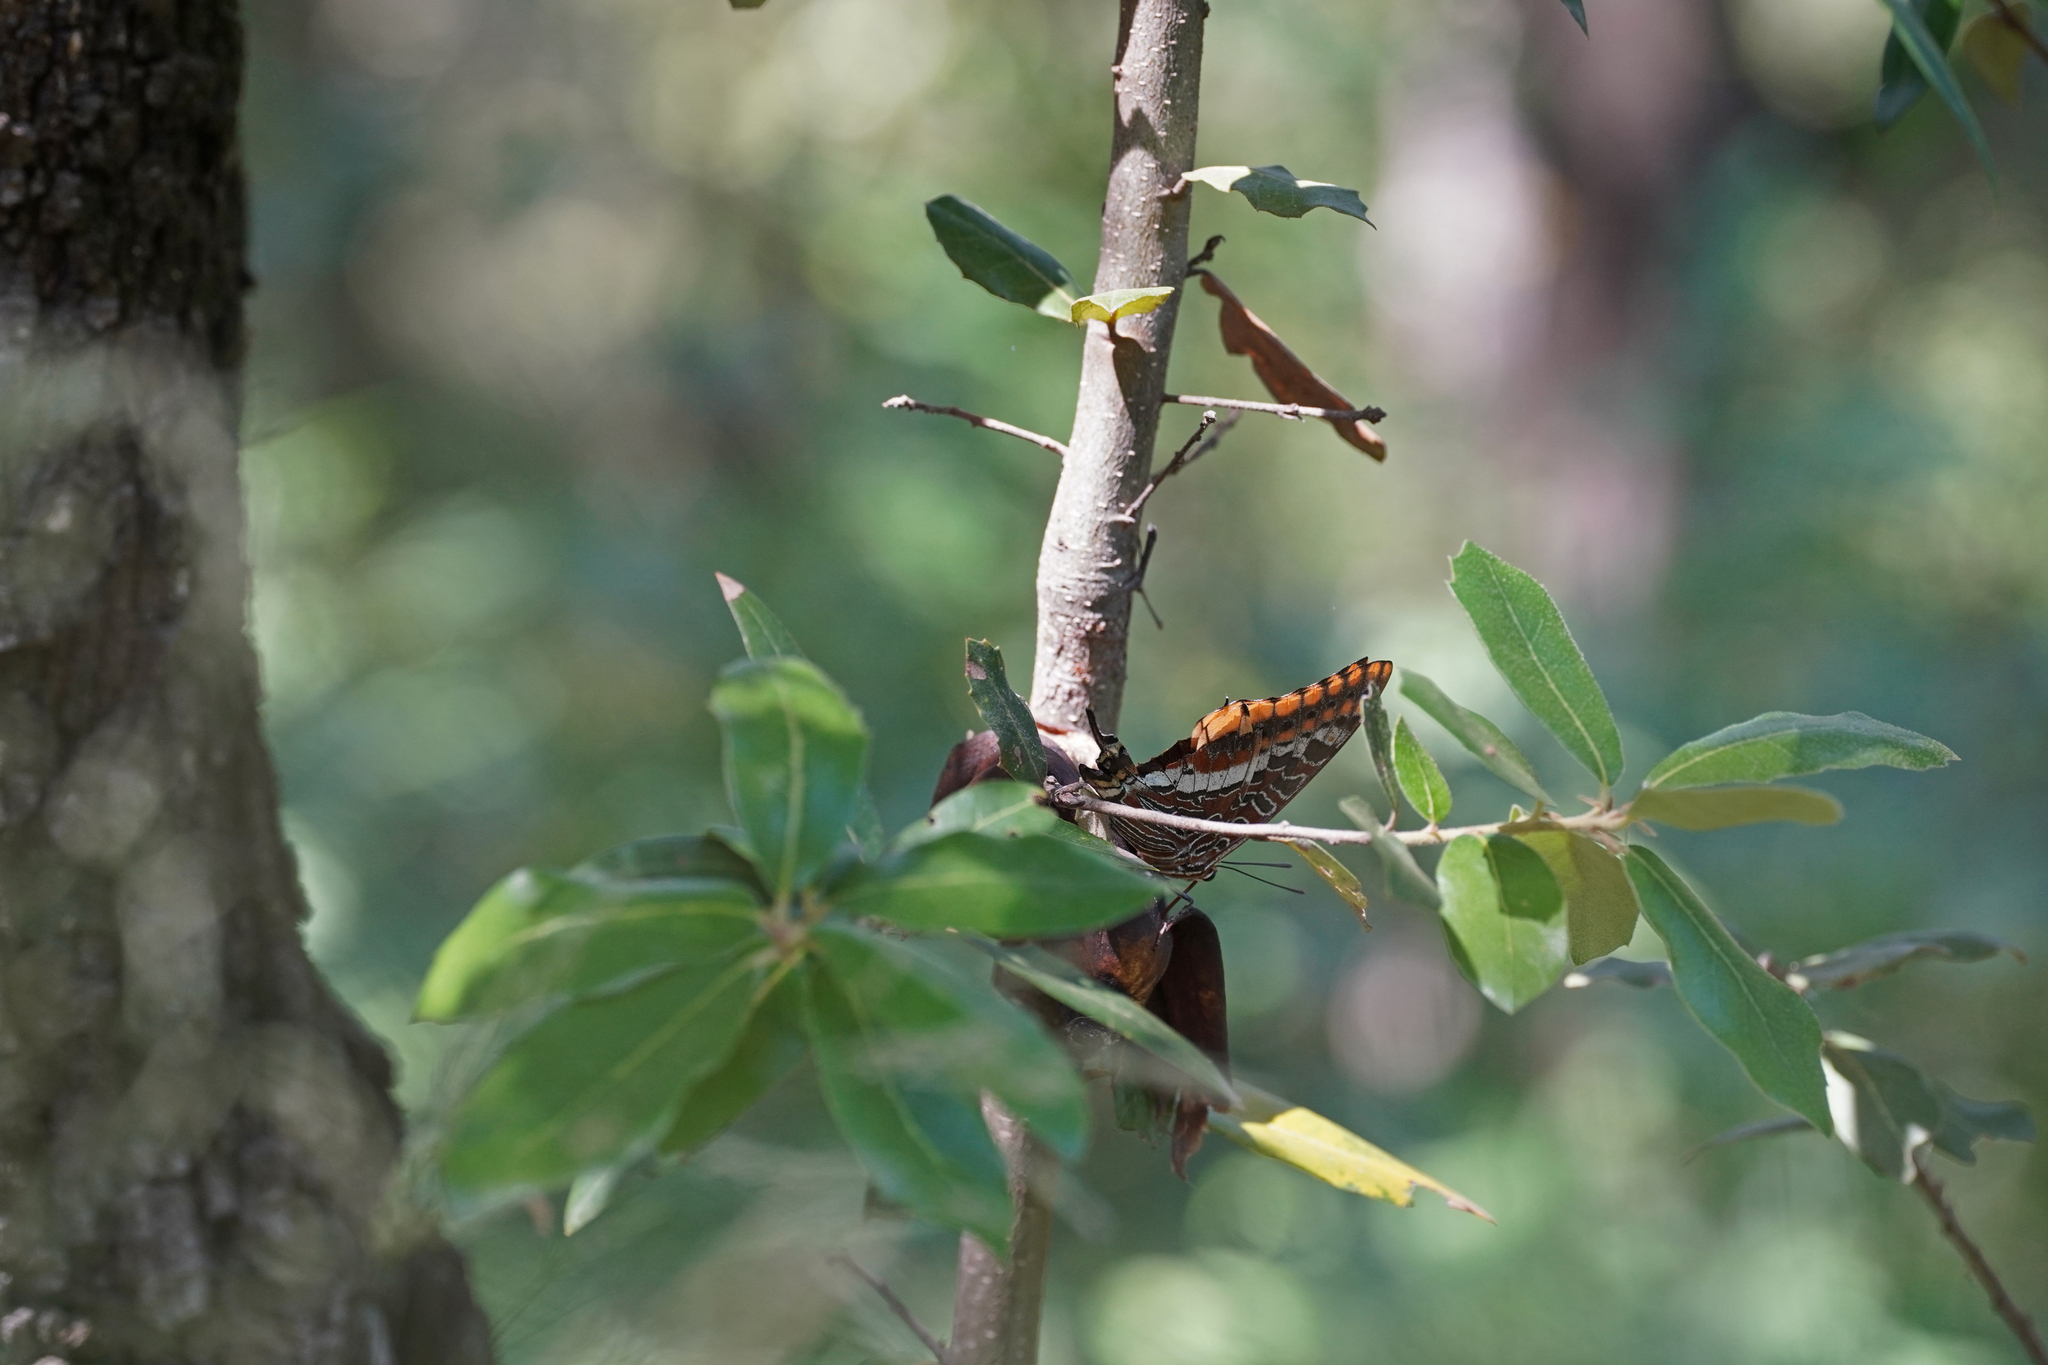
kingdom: Animalia
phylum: Arthropoda
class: Insecta
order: Lepidoptera
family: Nymphalidae
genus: Charaxes
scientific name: Charaxes jasius
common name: Two tailed pasha
